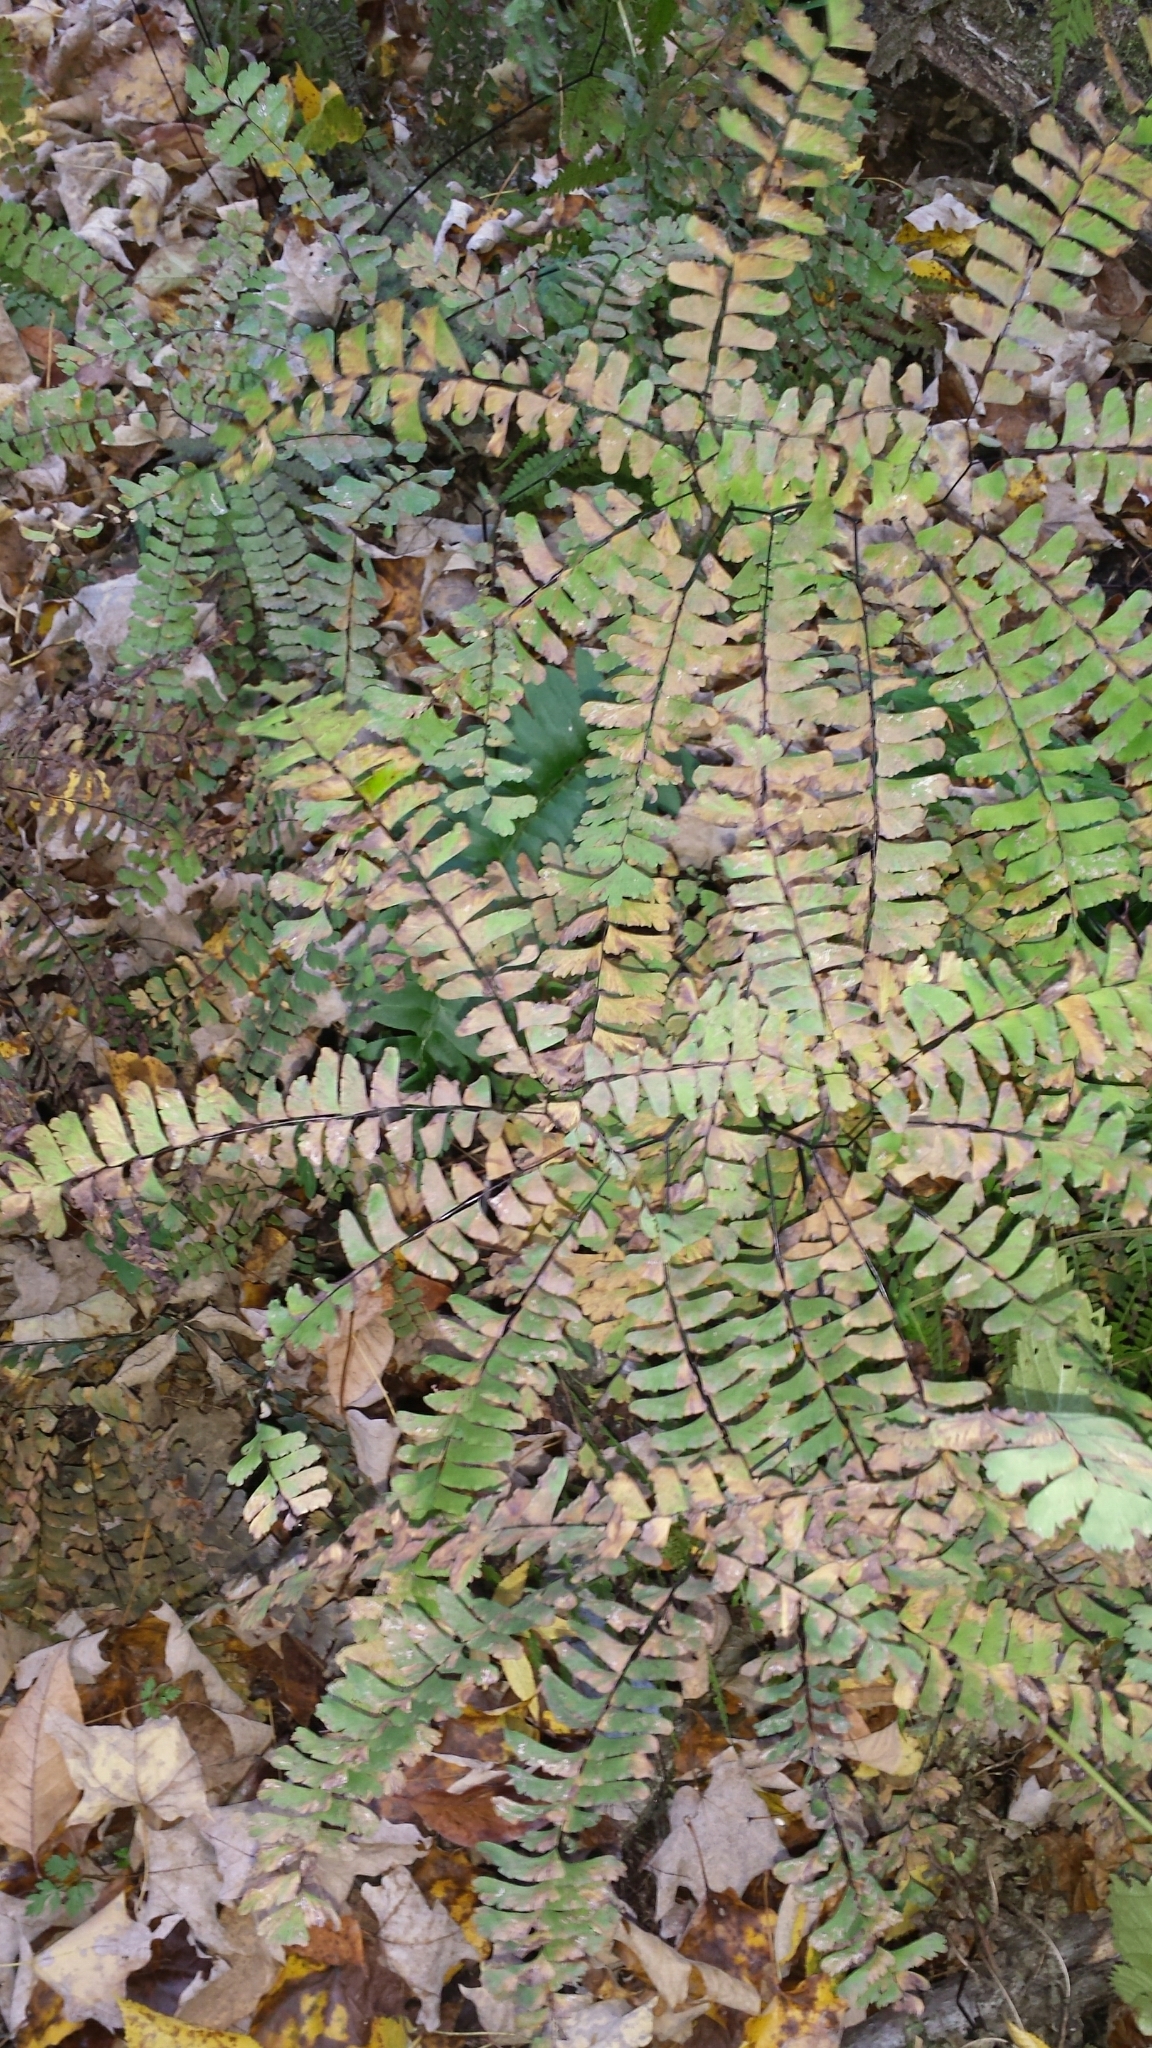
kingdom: Plantae
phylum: Tracheophyta
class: Polypodiopsida
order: Polypodiales
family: Pteridaceae
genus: Adiantum
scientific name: Adiantum pedatum
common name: Five-finger fern
